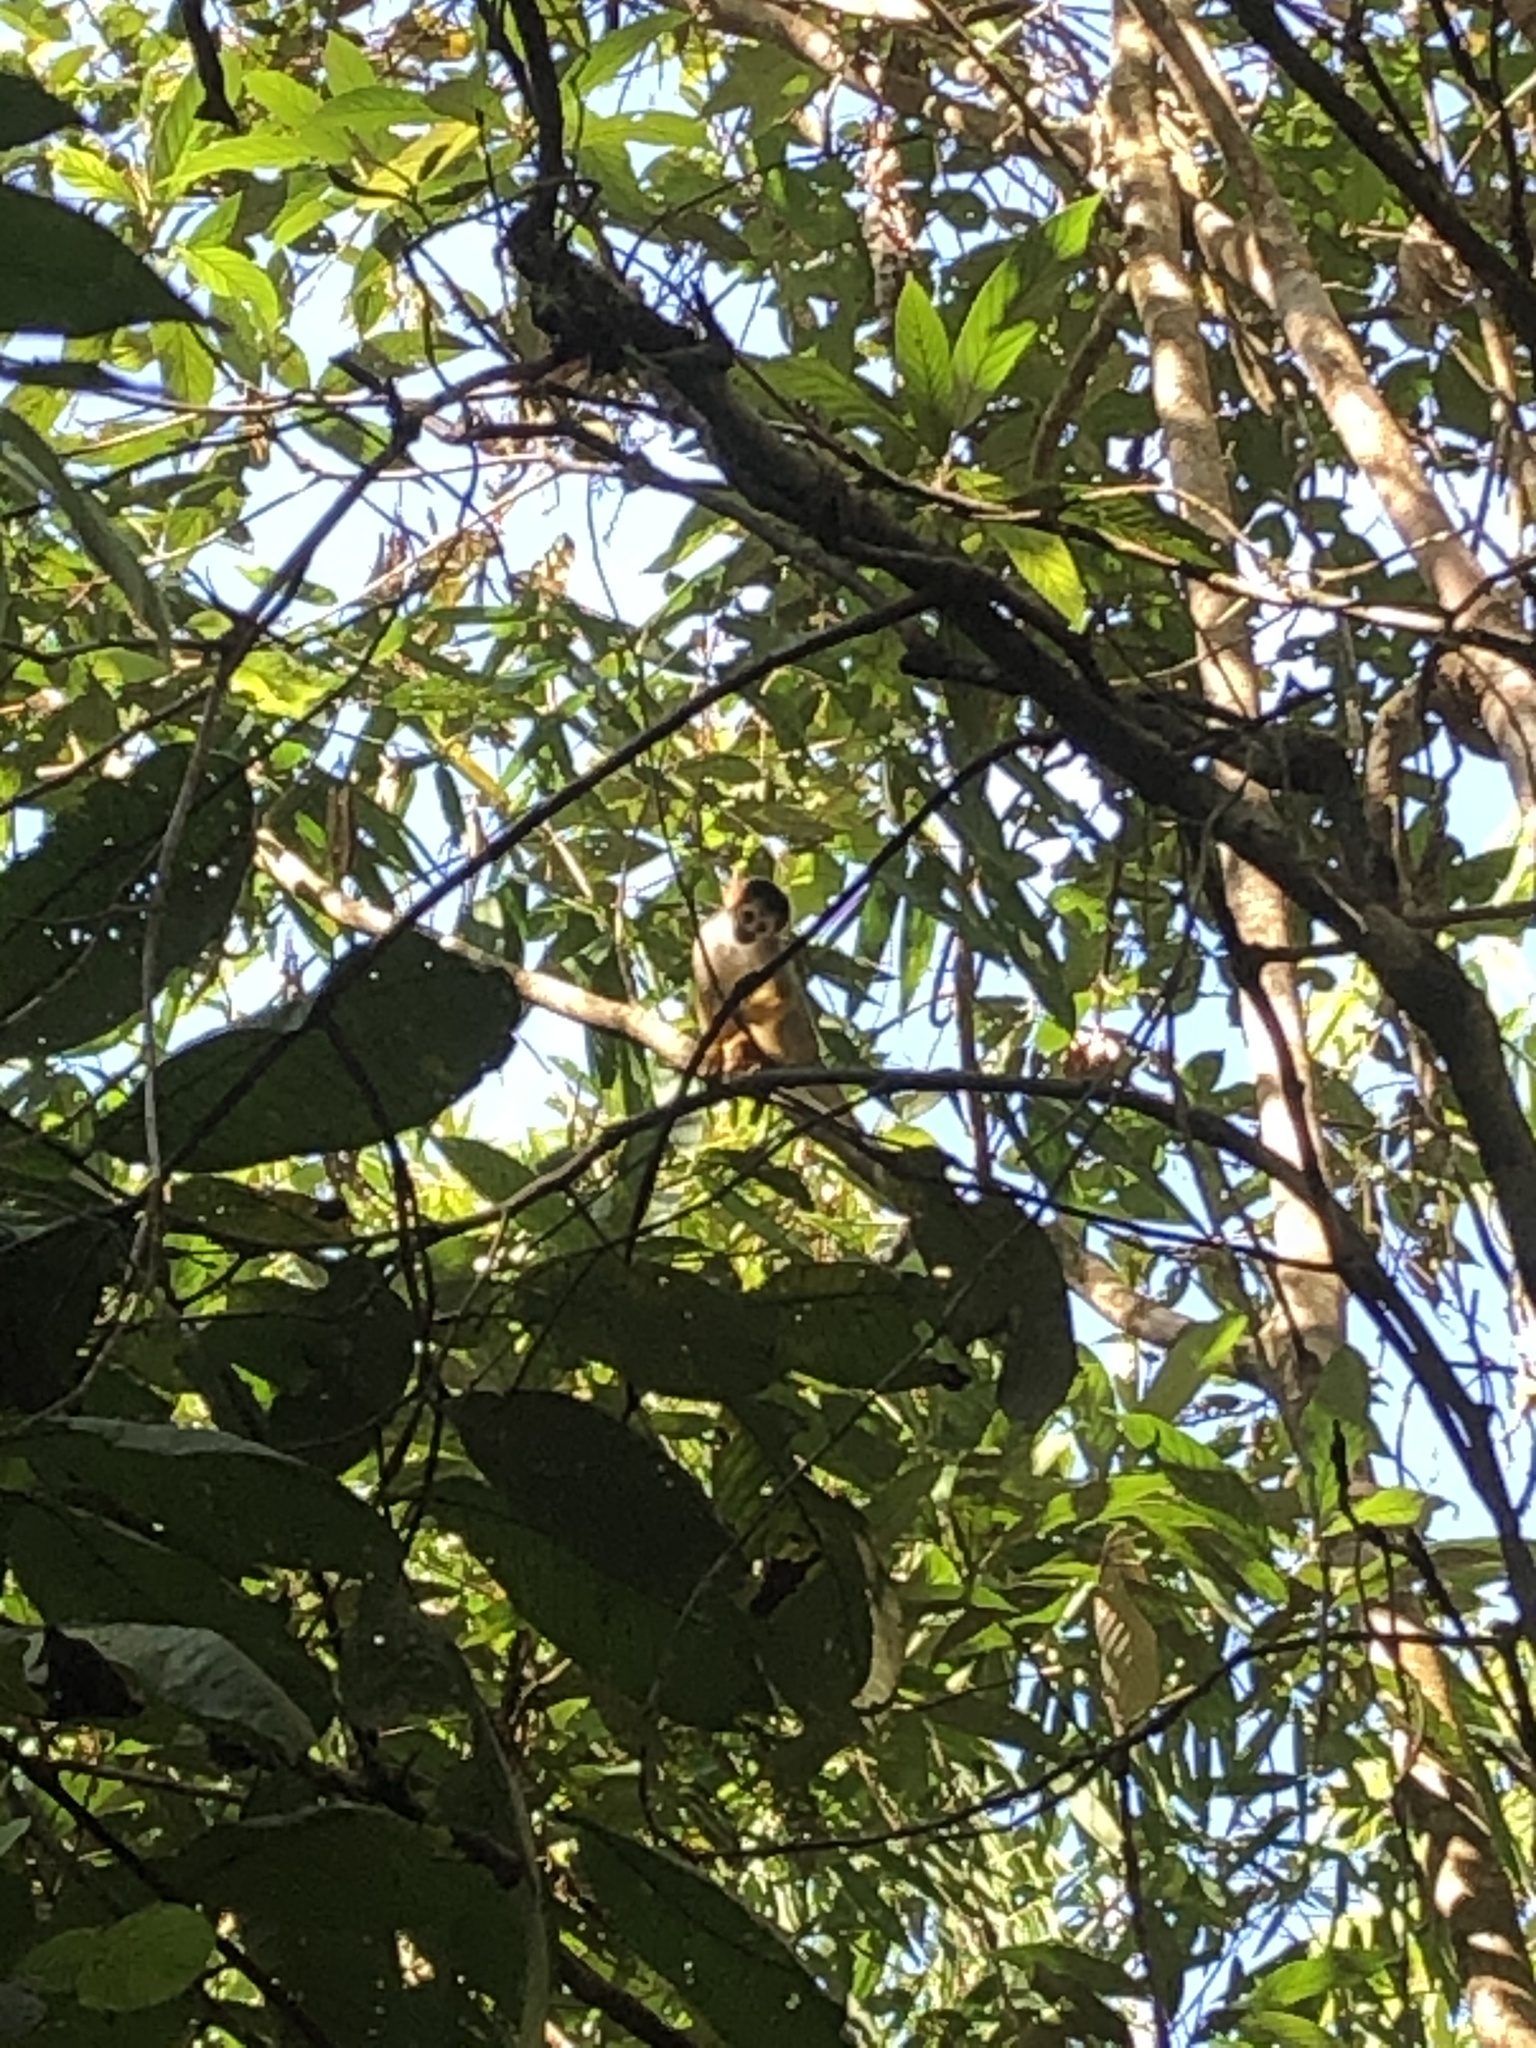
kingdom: Animalia
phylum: Chordata
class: Mammalia
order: Primates
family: Cebidae
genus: Saimiri
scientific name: Saimiri boliviensis
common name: Black-capped squirrel monkey
